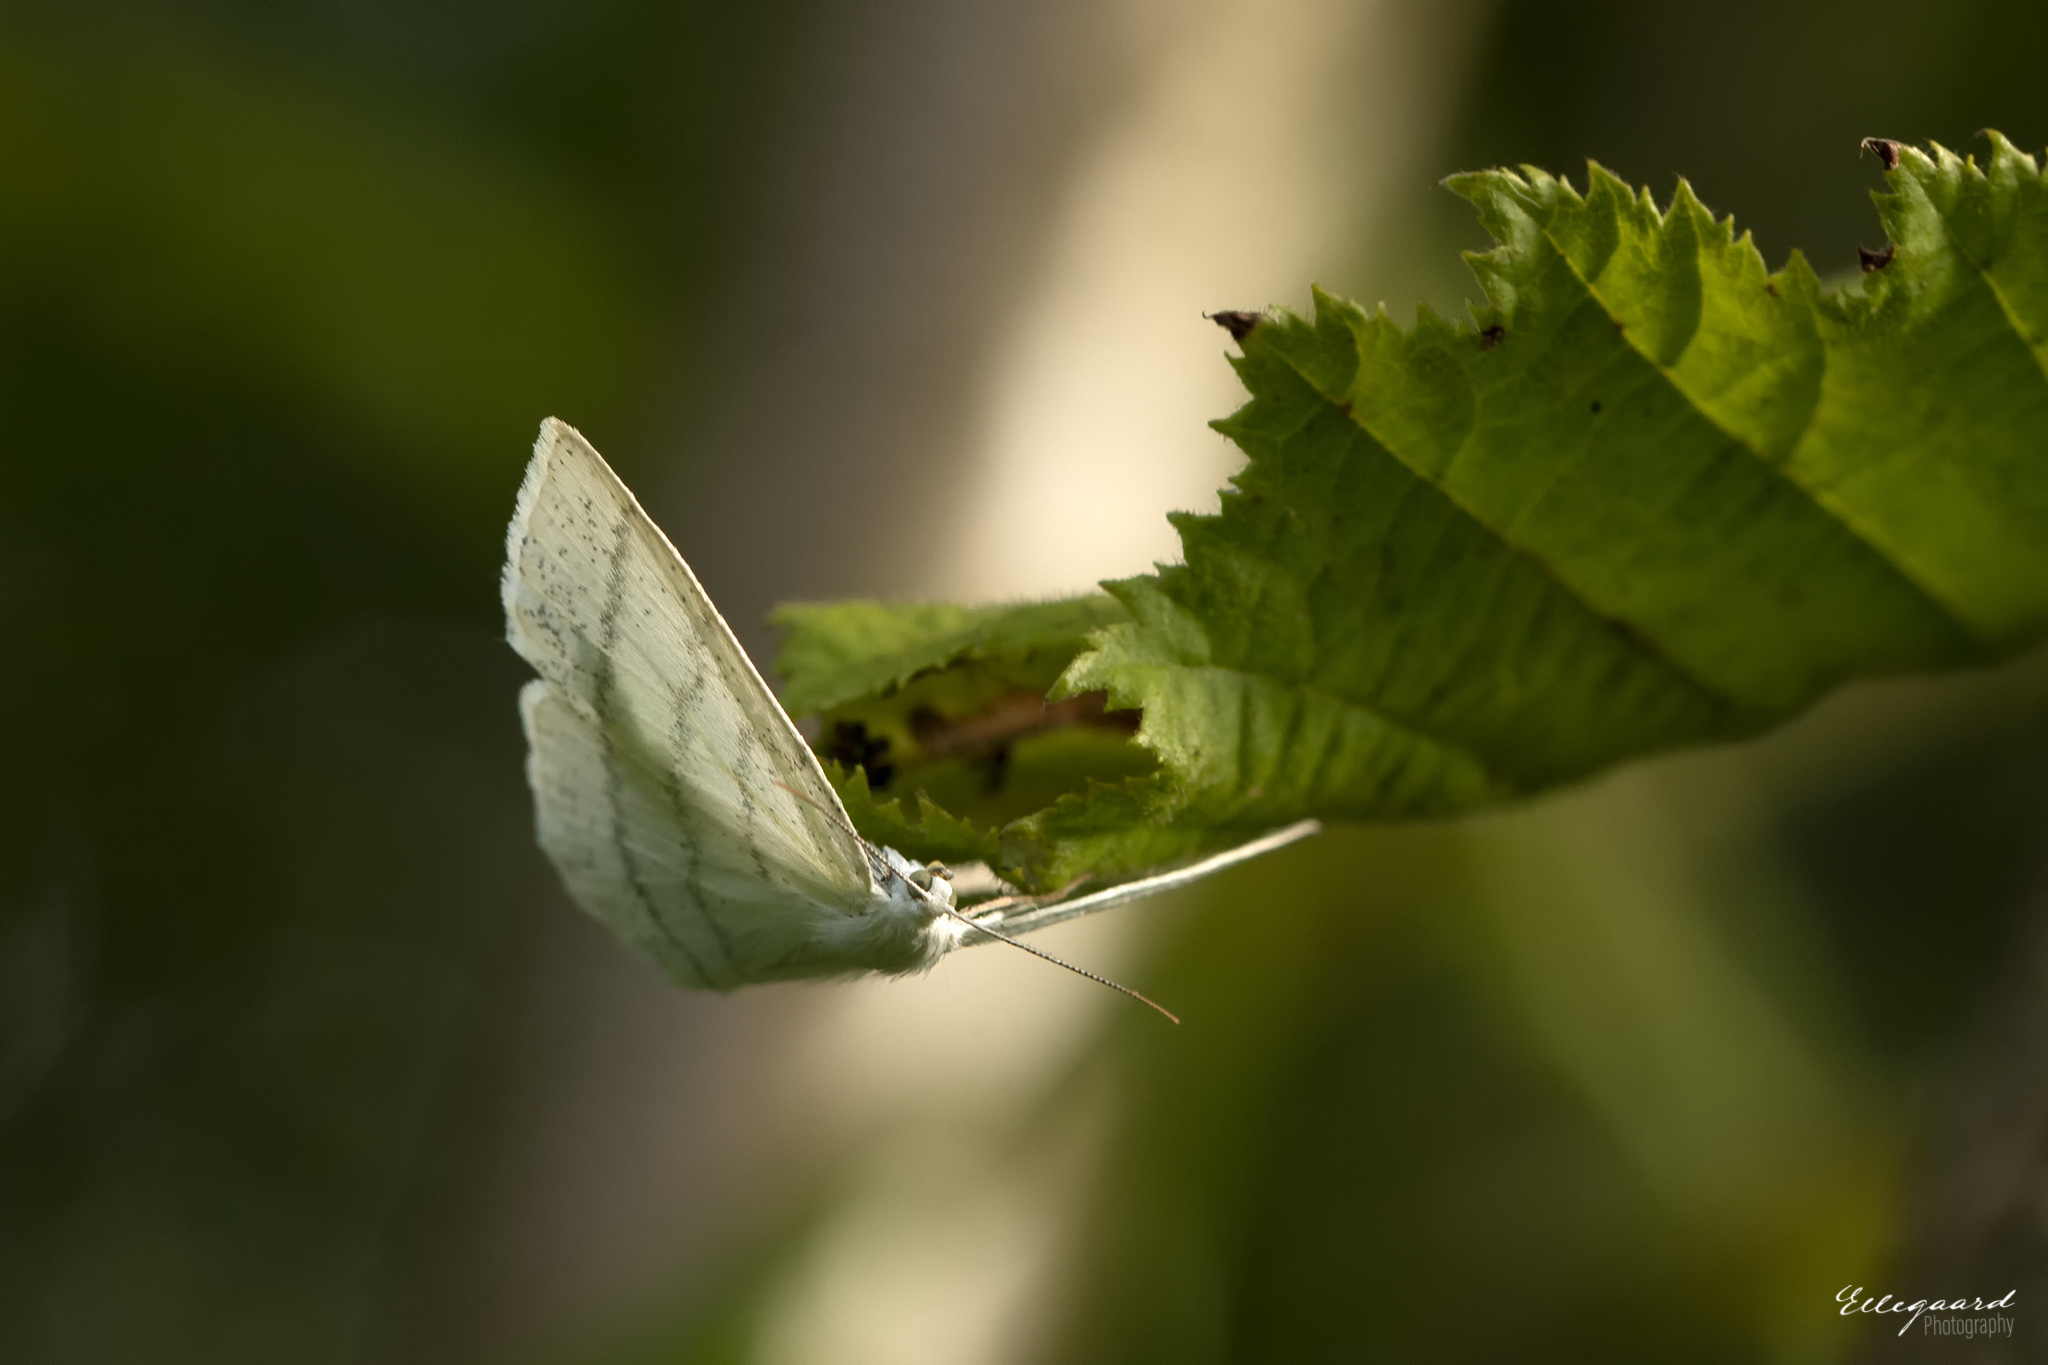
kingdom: Animalia
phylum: Arthropoda
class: Insecta
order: Lepidoptera
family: Geometridae
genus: Cabera
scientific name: Cabera pusaria
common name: Common white wave
